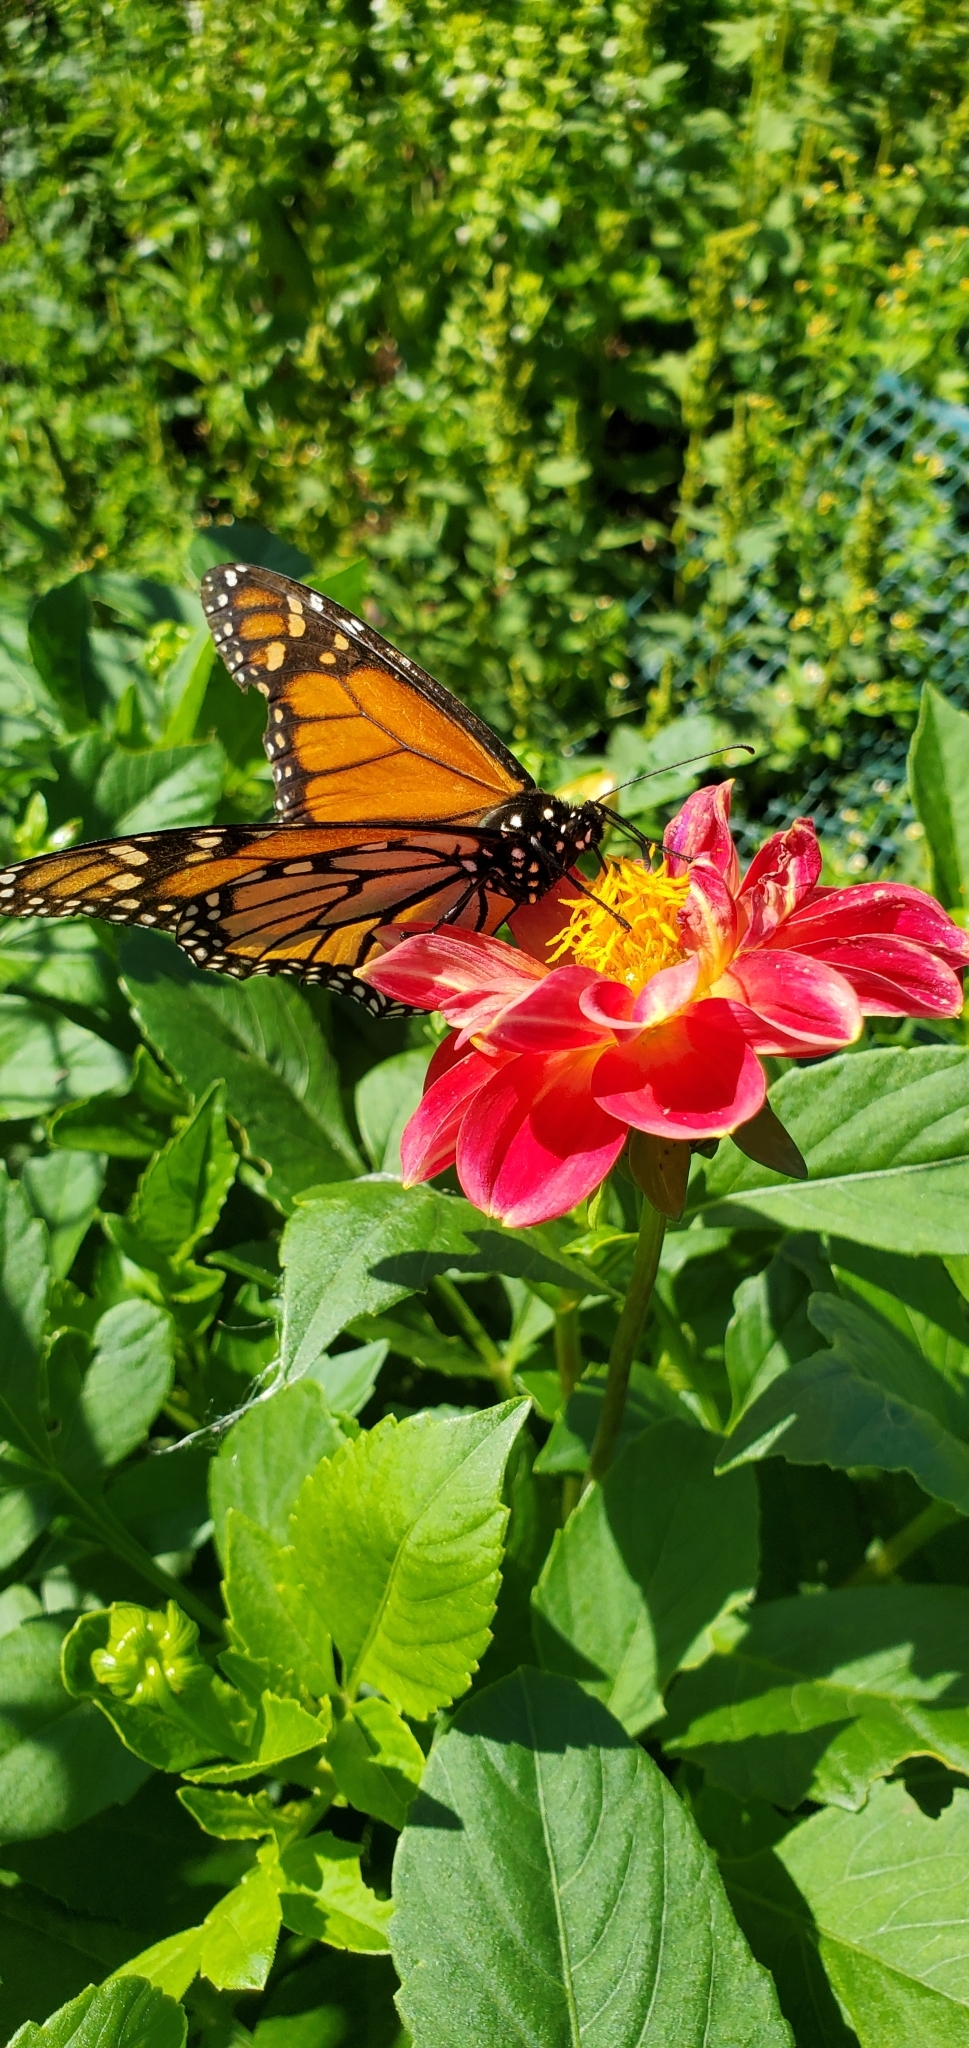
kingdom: Animalia
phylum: Arthropoda
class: Insecta
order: Lepidoptera
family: Nymphalidae
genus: Danaus
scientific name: Danaus plexippus
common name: Monarch
